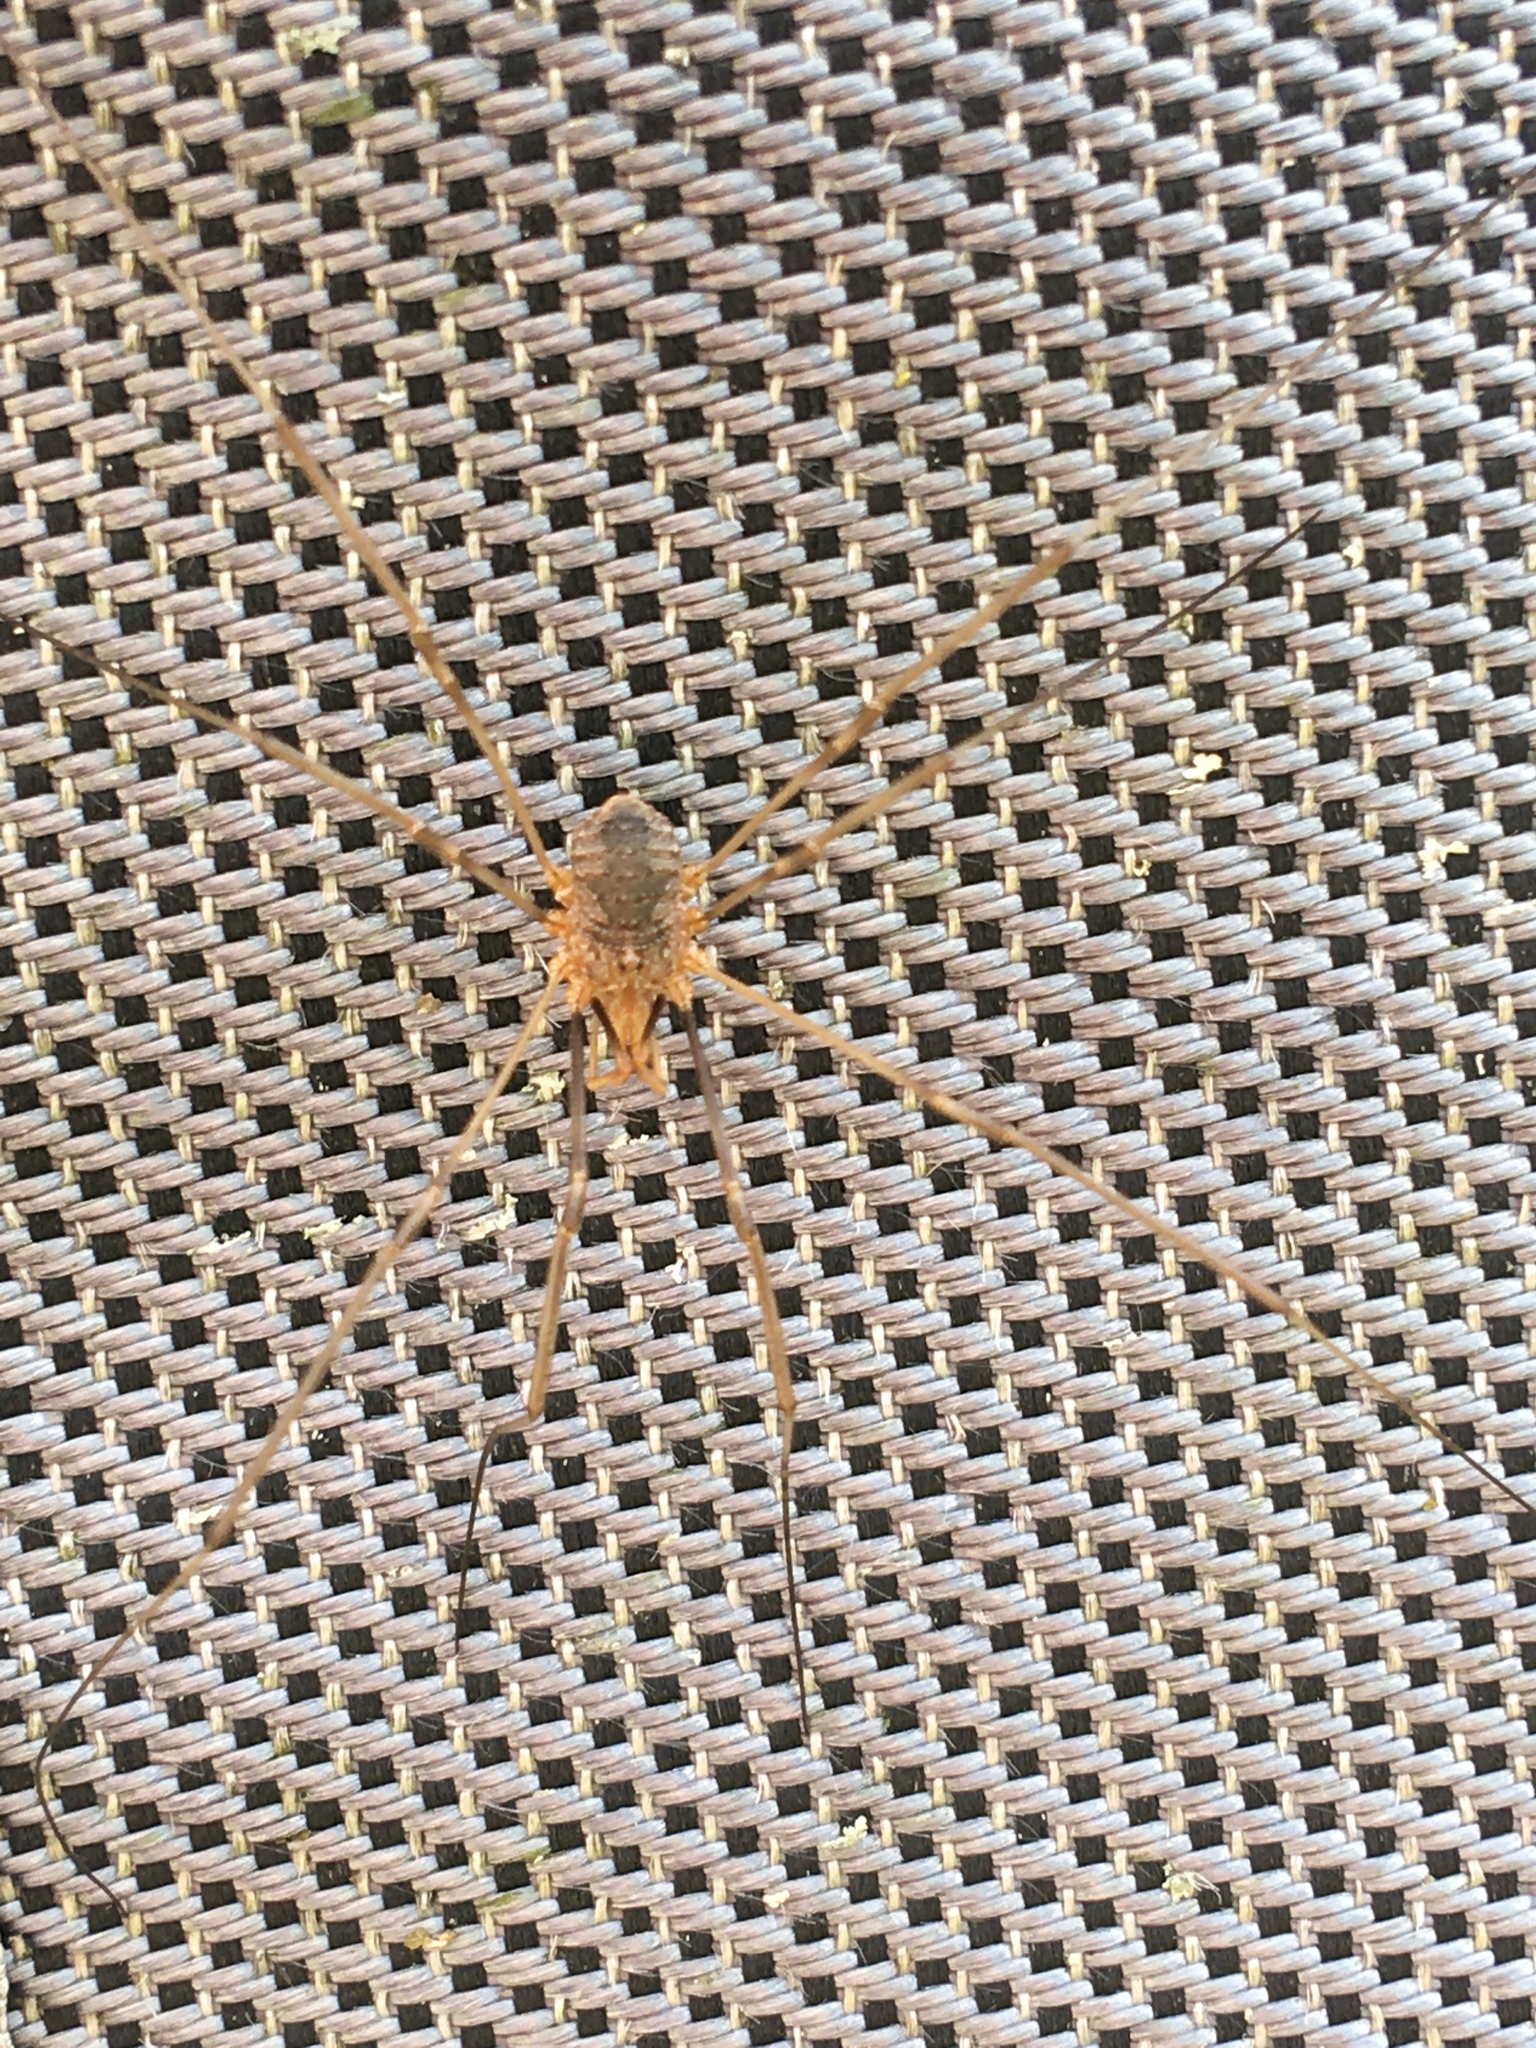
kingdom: Animalia
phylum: Arthropoda
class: Arachnida
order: Opiliones
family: Phalangiidae
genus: Phalangium
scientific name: Phalangium opilio
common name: Daddy longleg
